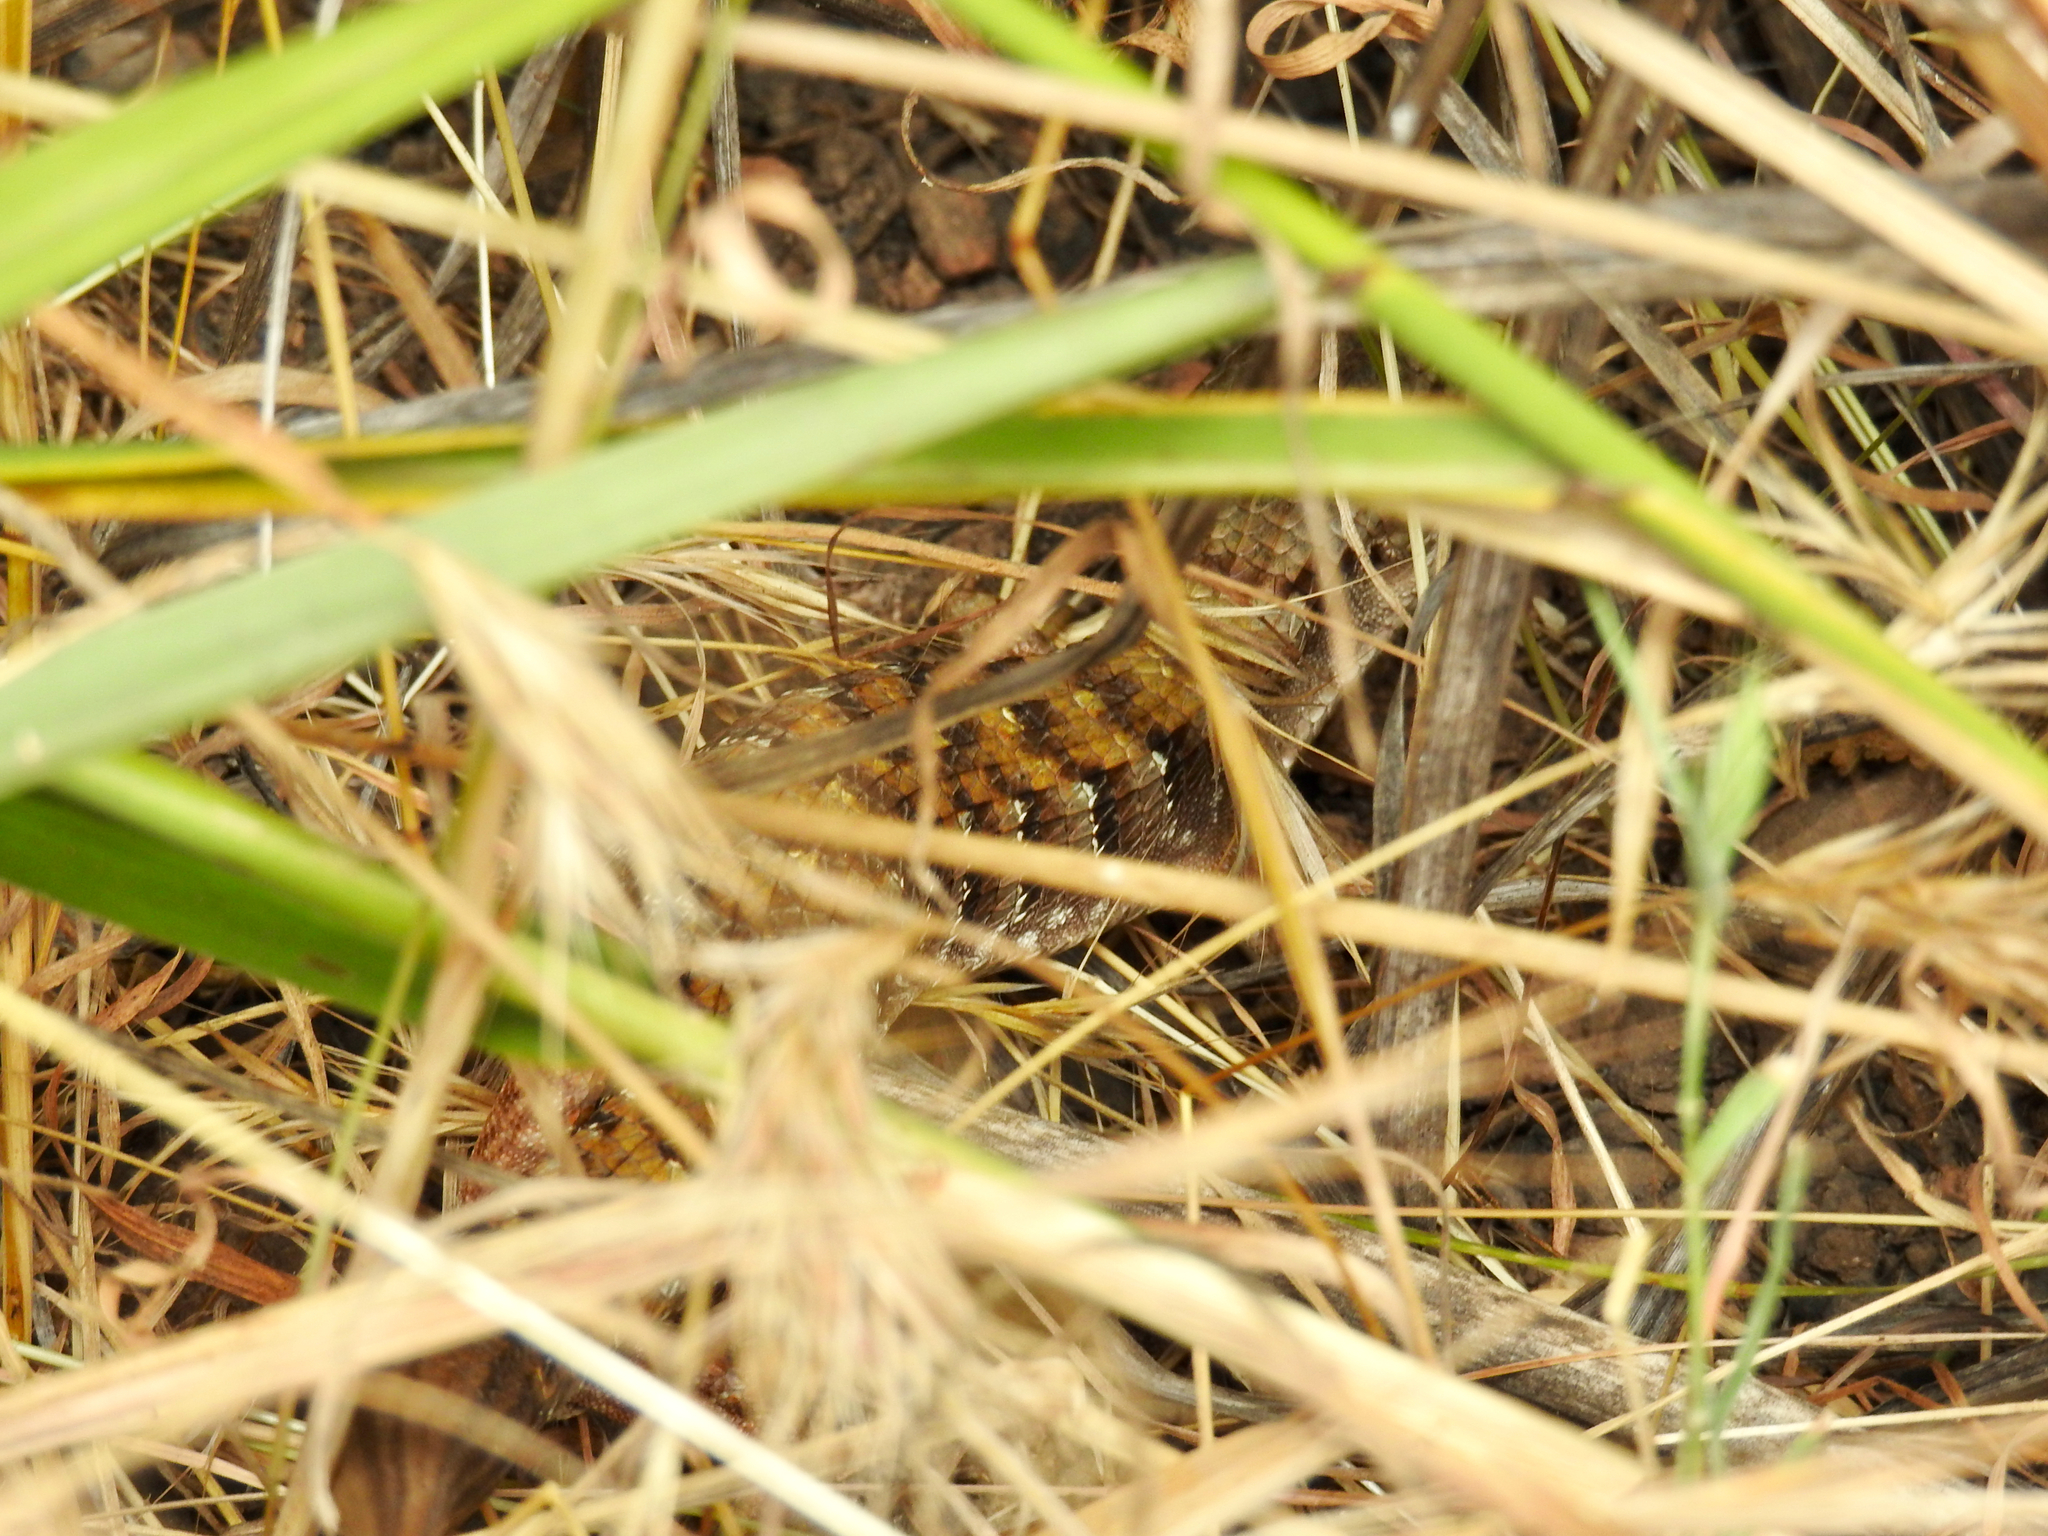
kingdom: Animalia
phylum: Chordata
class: Squamata
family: Anguidae
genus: Elgaria
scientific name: Elgaria multicarinata
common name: Southern alligator lizard
